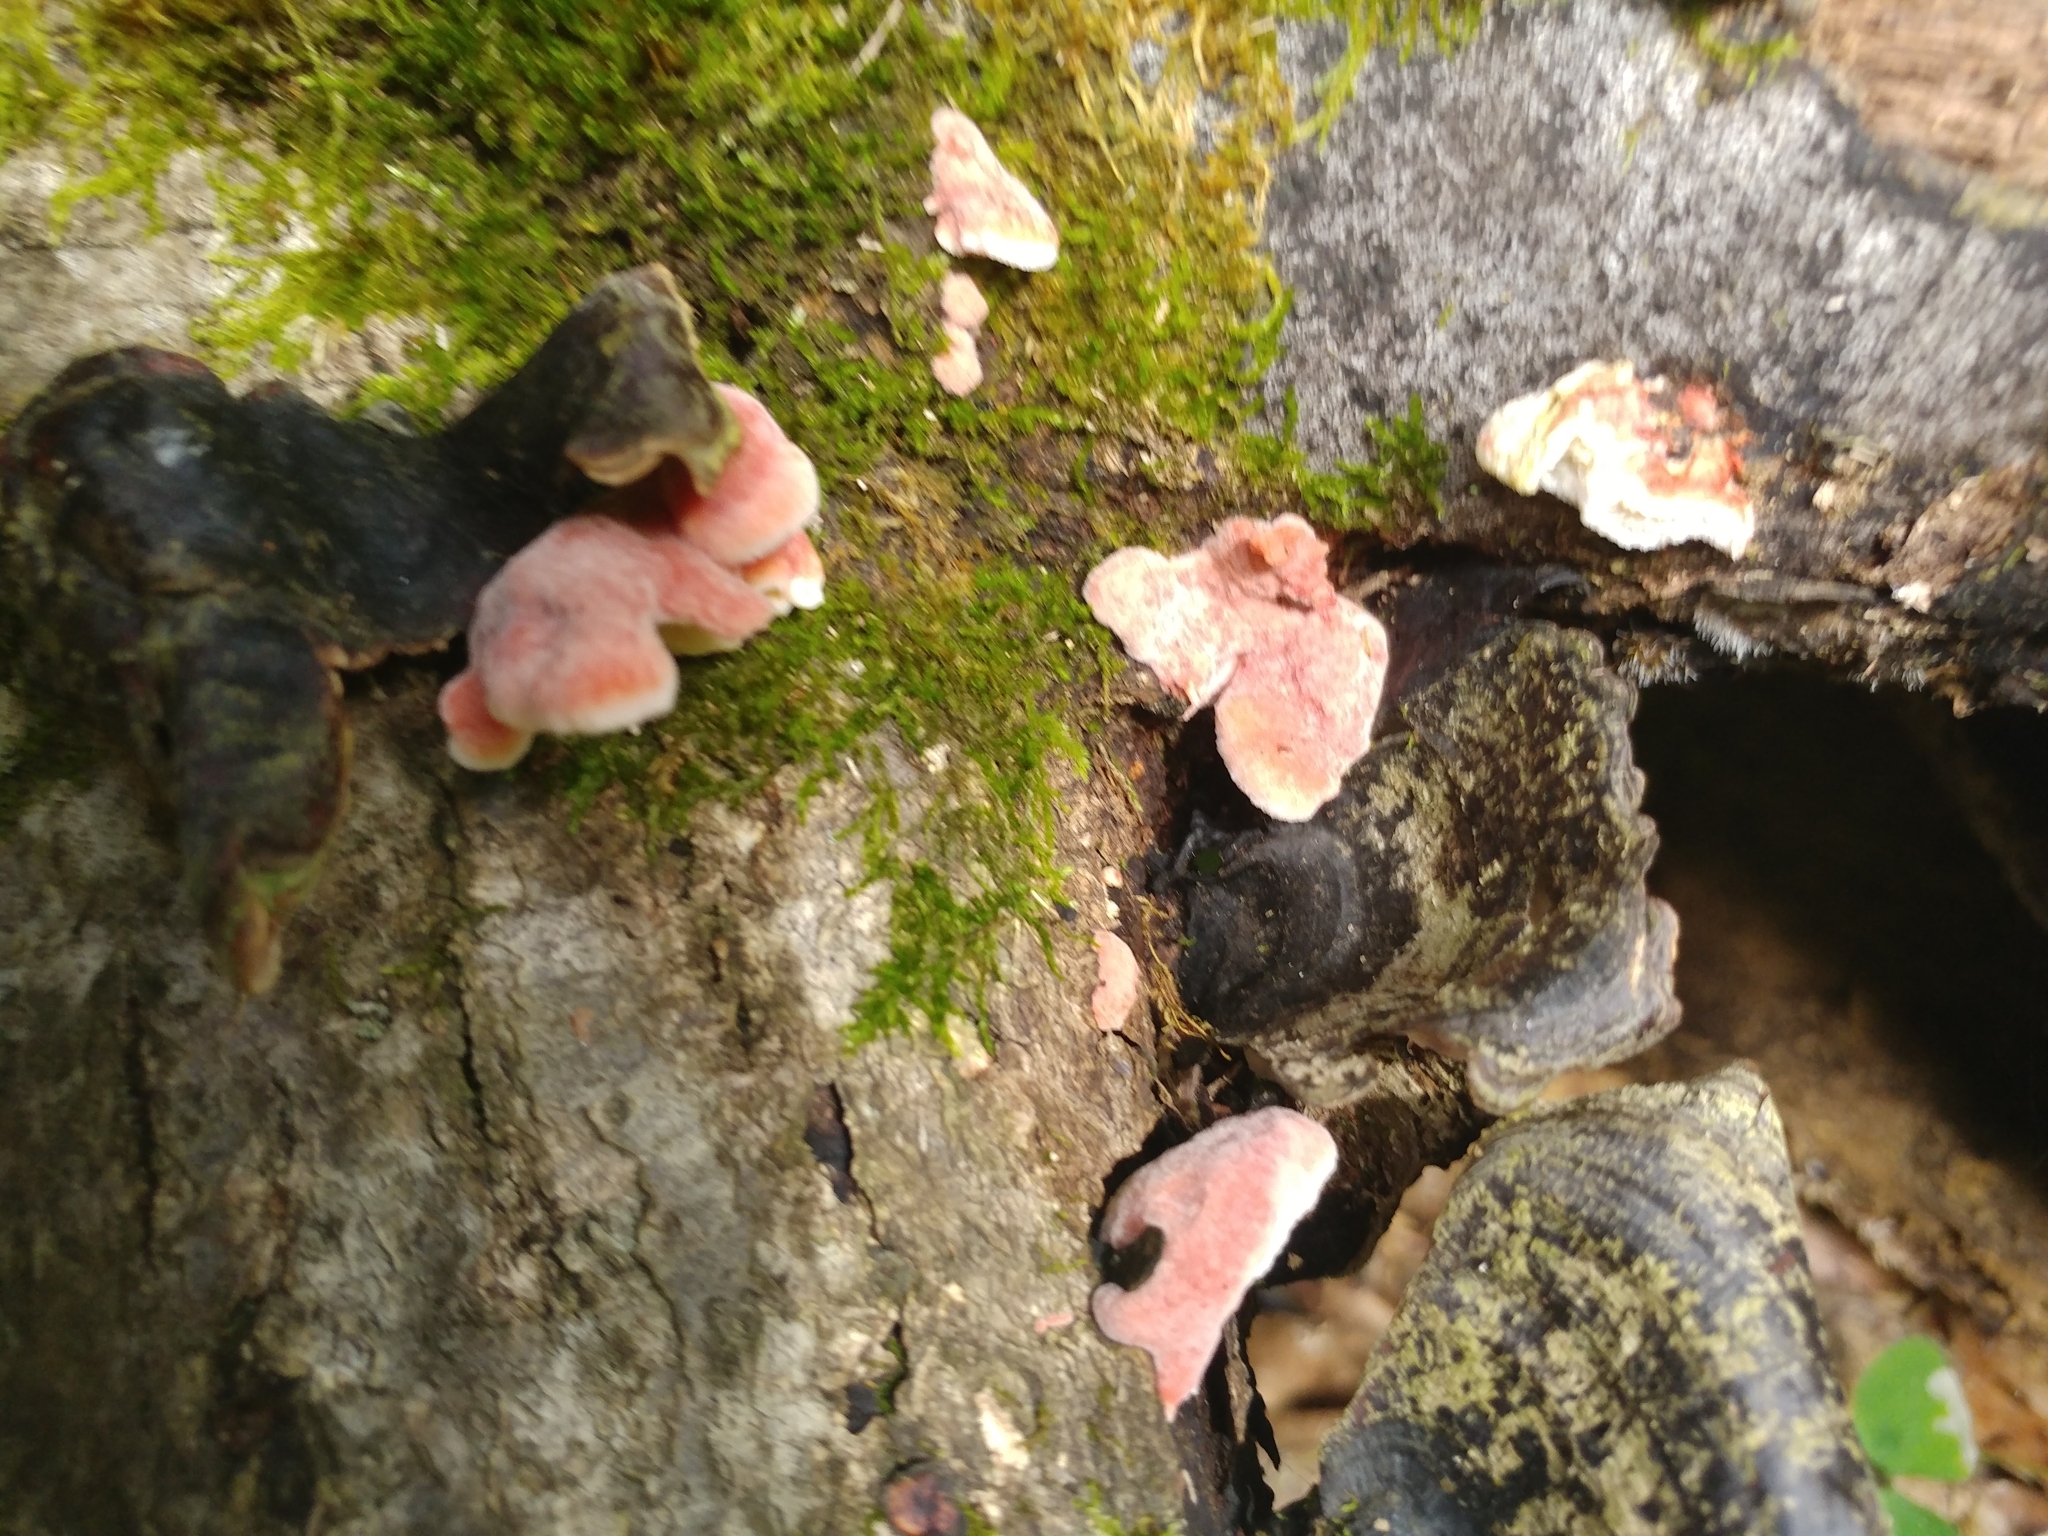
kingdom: Fungi
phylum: Basidiomycota
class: Agaricomycetes
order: Polyporales
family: Irpicaceae
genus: Byssomerulius
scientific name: Byssomerulius incarnatus
